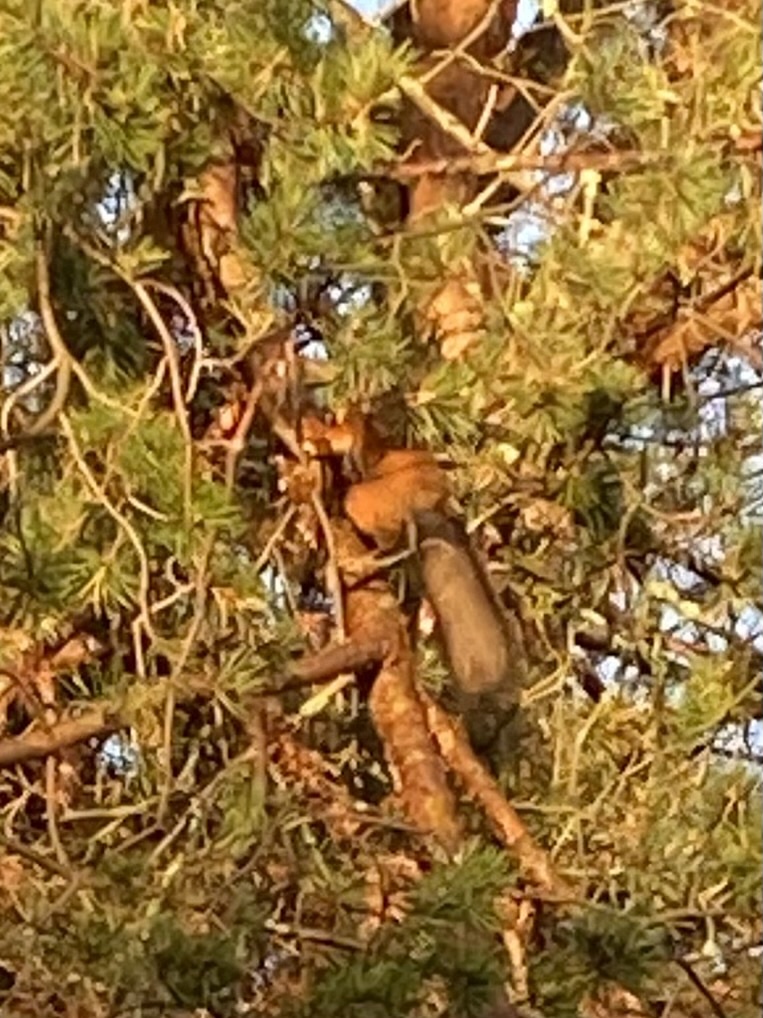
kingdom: Animalia
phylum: Chordata
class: Mammalia
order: Rodentia
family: Sciuridae
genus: Sciurus
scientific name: Sciurus vulgaris
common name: Eurasian red squirrel
